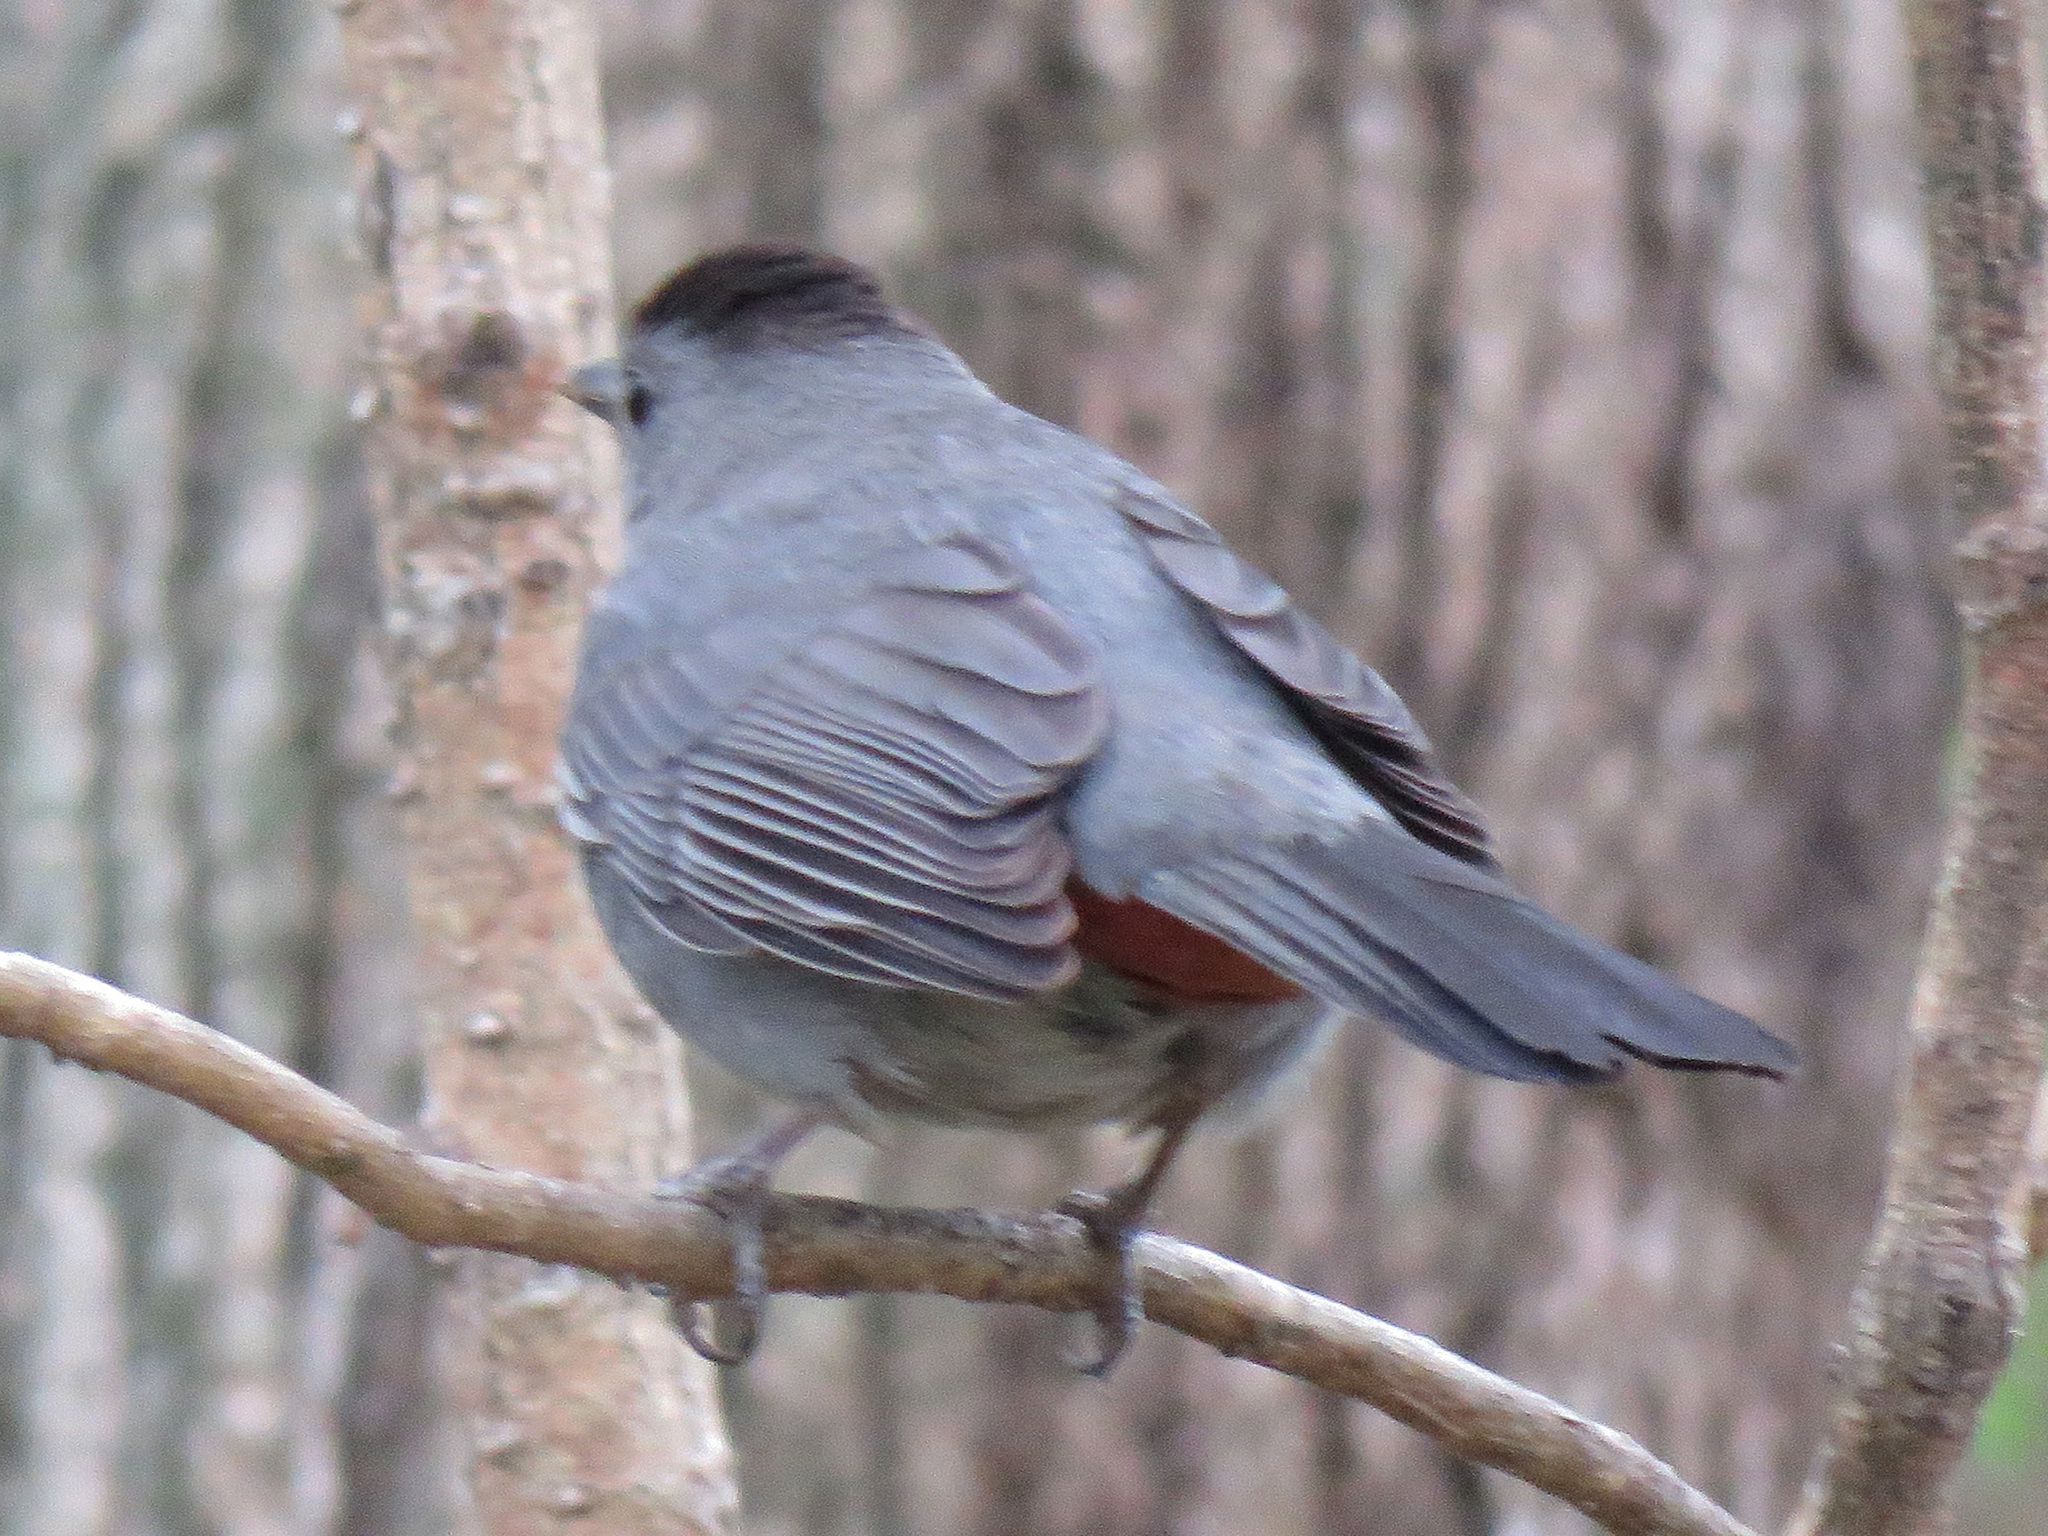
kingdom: Animalia
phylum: Chordata
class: Aves
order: Passeriformes
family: Mimidae
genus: Dumetella
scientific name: Dumetella carolinensis
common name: Gray catbird
